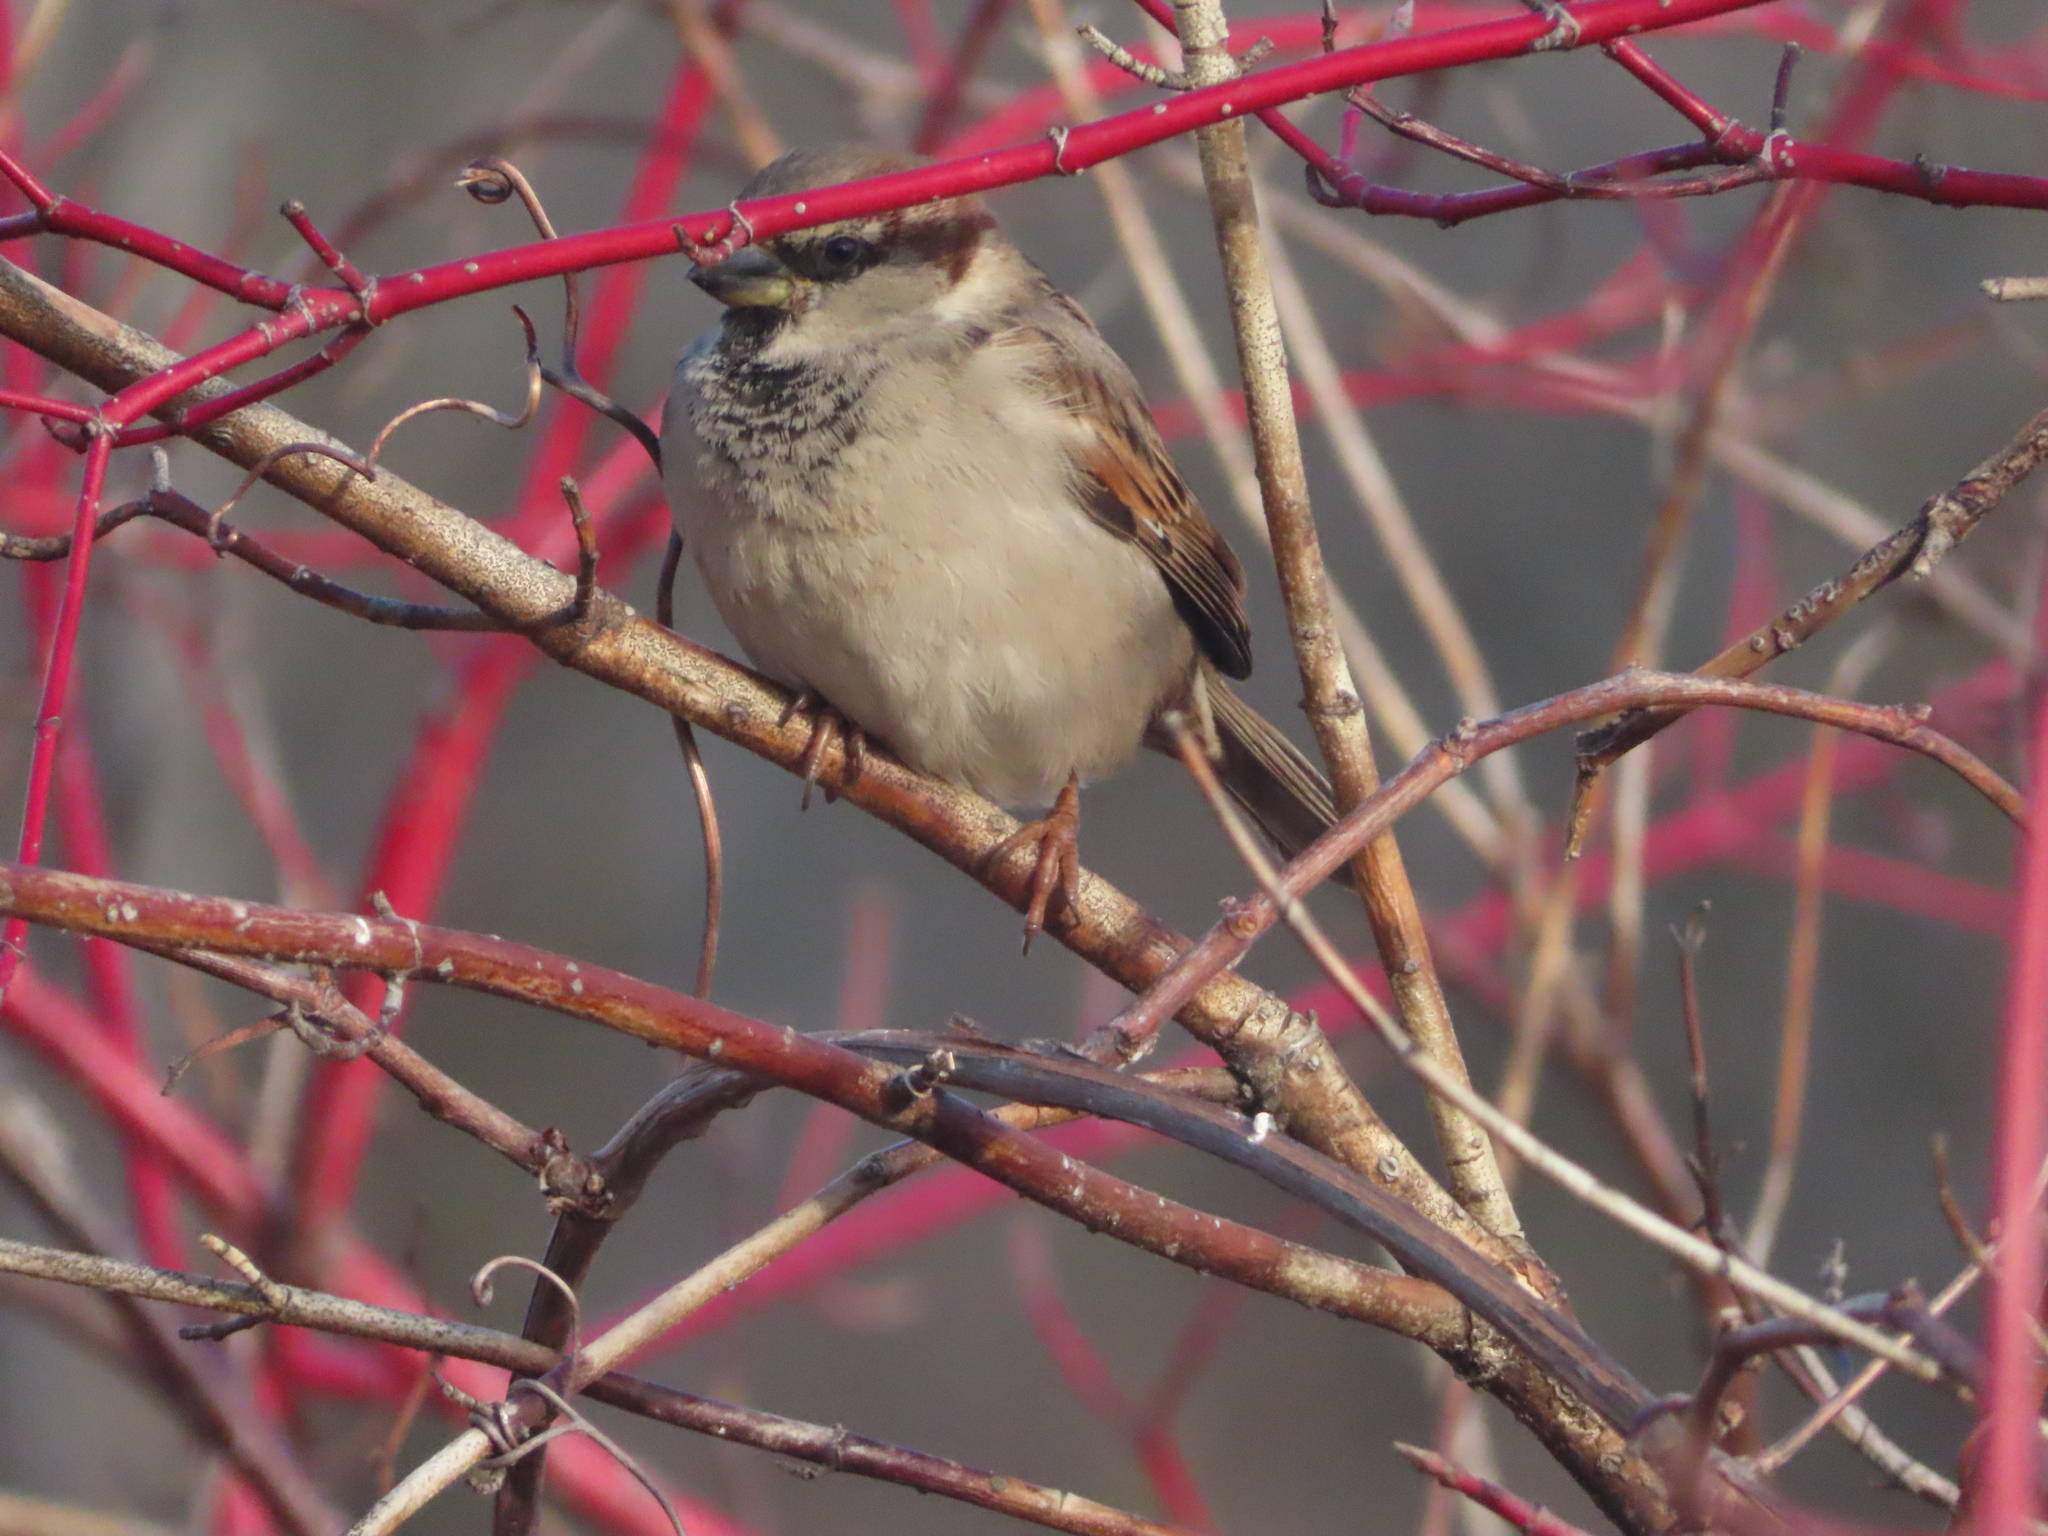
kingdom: Animalia
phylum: Chordata
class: Aves
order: Passeriformes
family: Passeridae
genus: Passer
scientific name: Passer domesticus
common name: House sparrow
